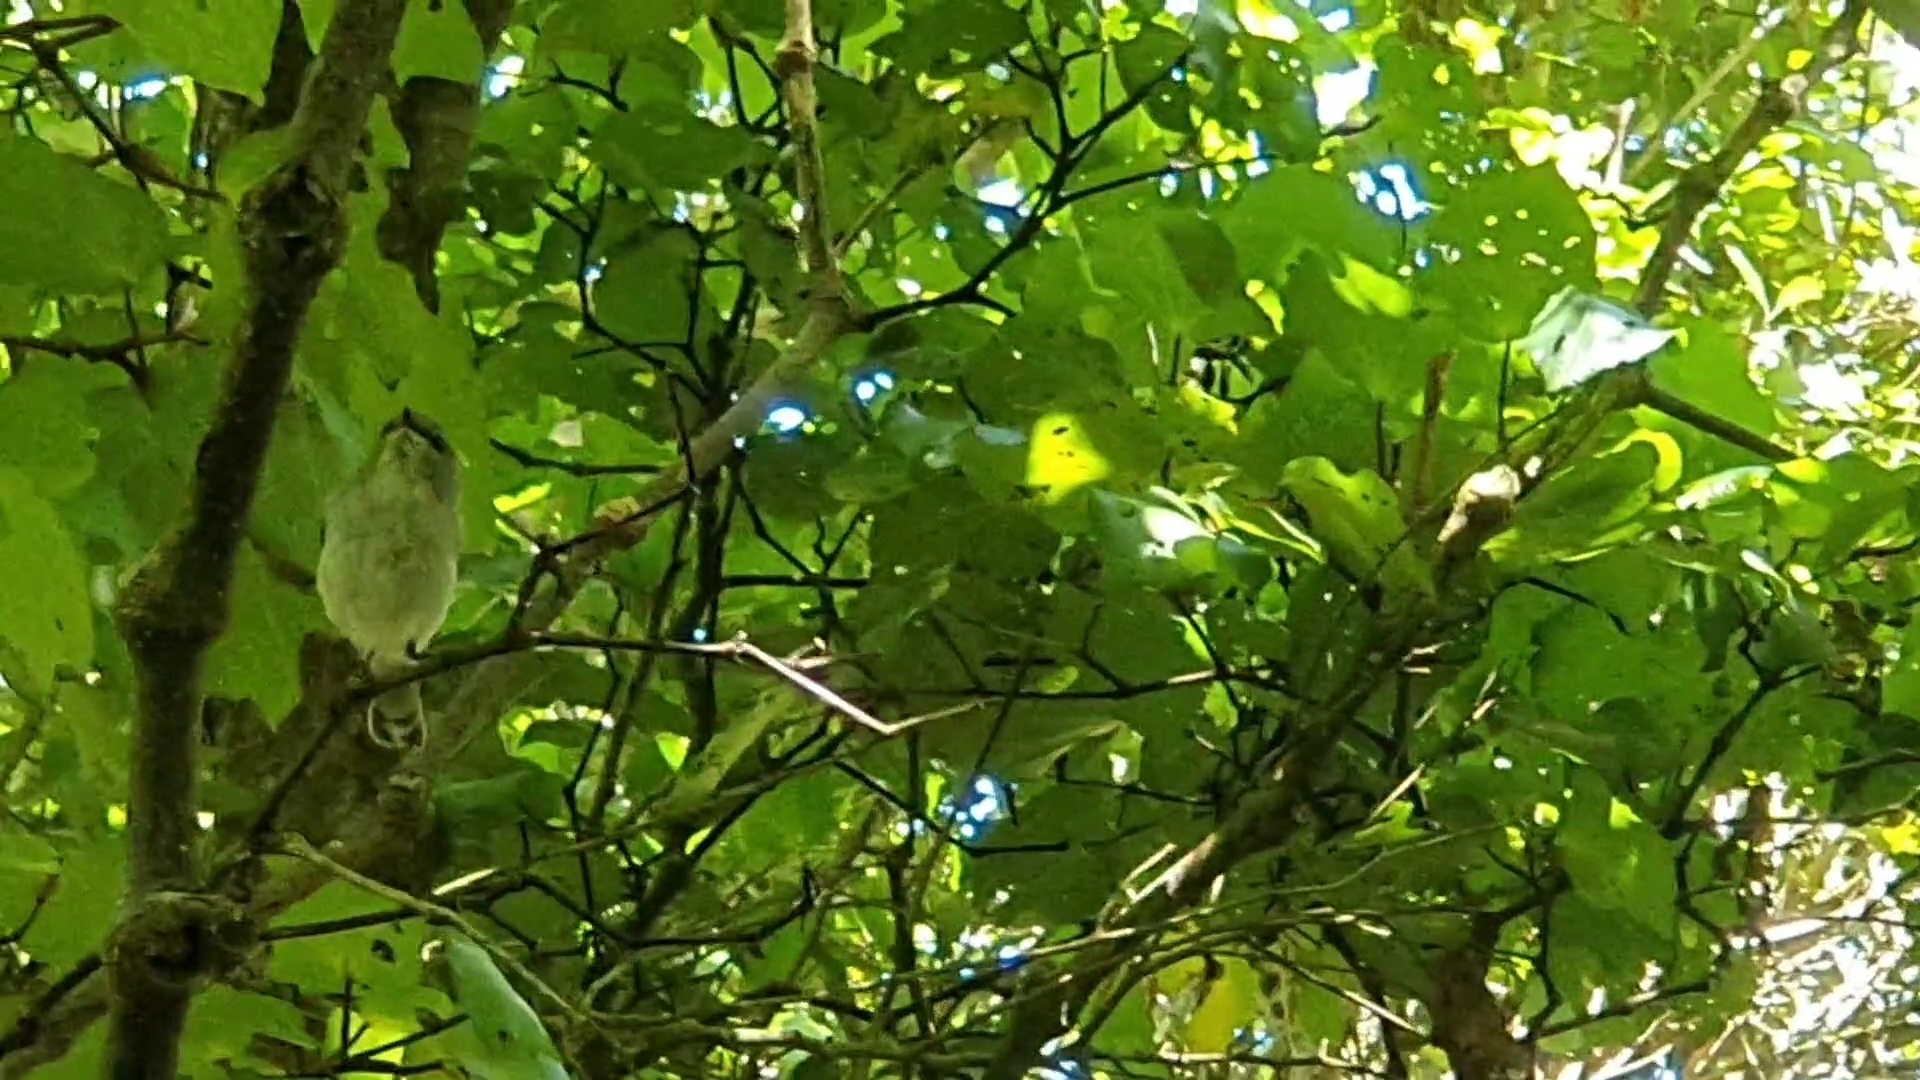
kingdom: Animalia
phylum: Chordata
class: Aves
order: Passeriformes
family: Acanthizidae
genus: Gerygone
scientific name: Gerygone igata
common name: Grey gerygone
